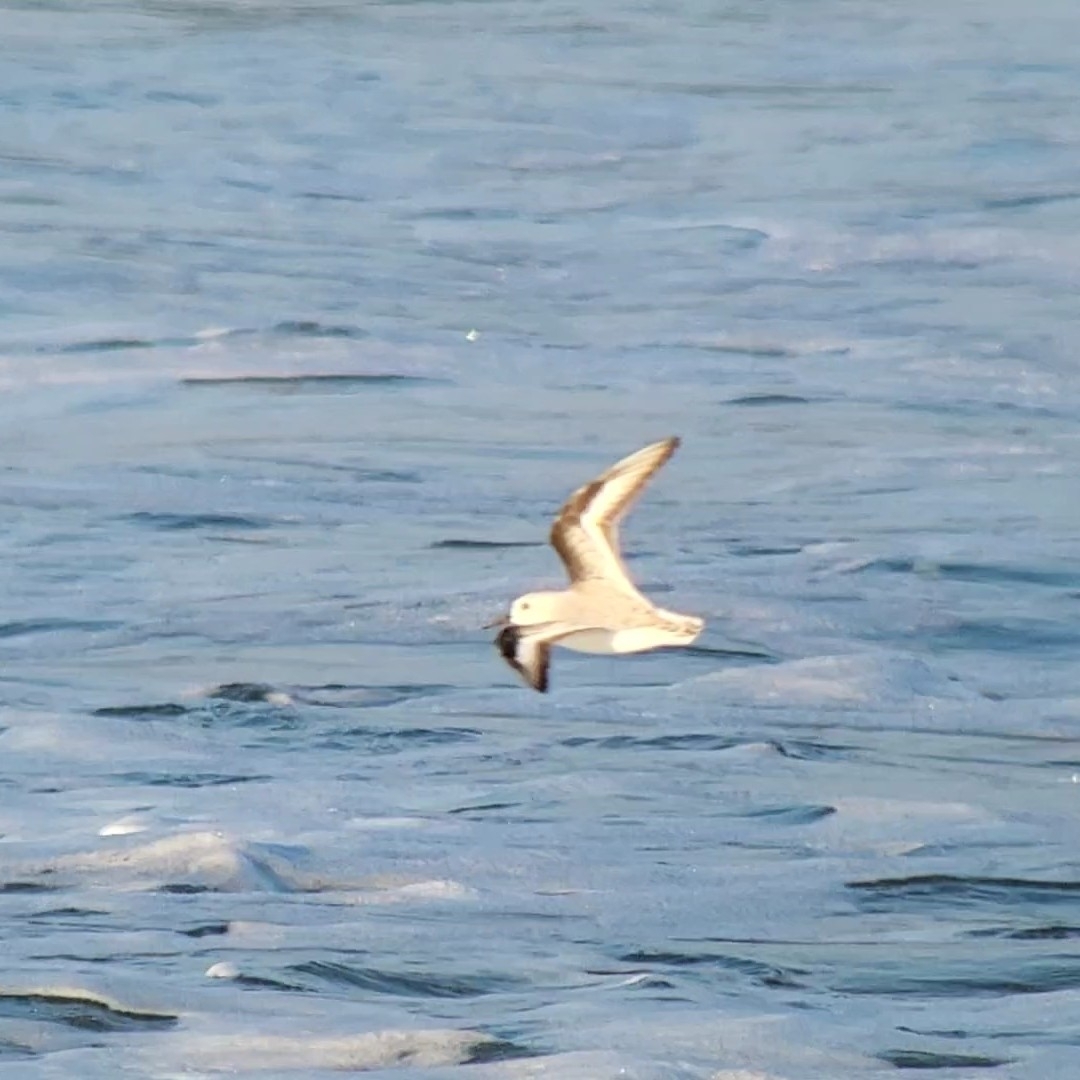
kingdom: Animalia
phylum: Chordata
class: Aves
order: Charadriiformes
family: Scolopacidae
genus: Calidris
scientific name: Calidris alba
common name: Sanderling
